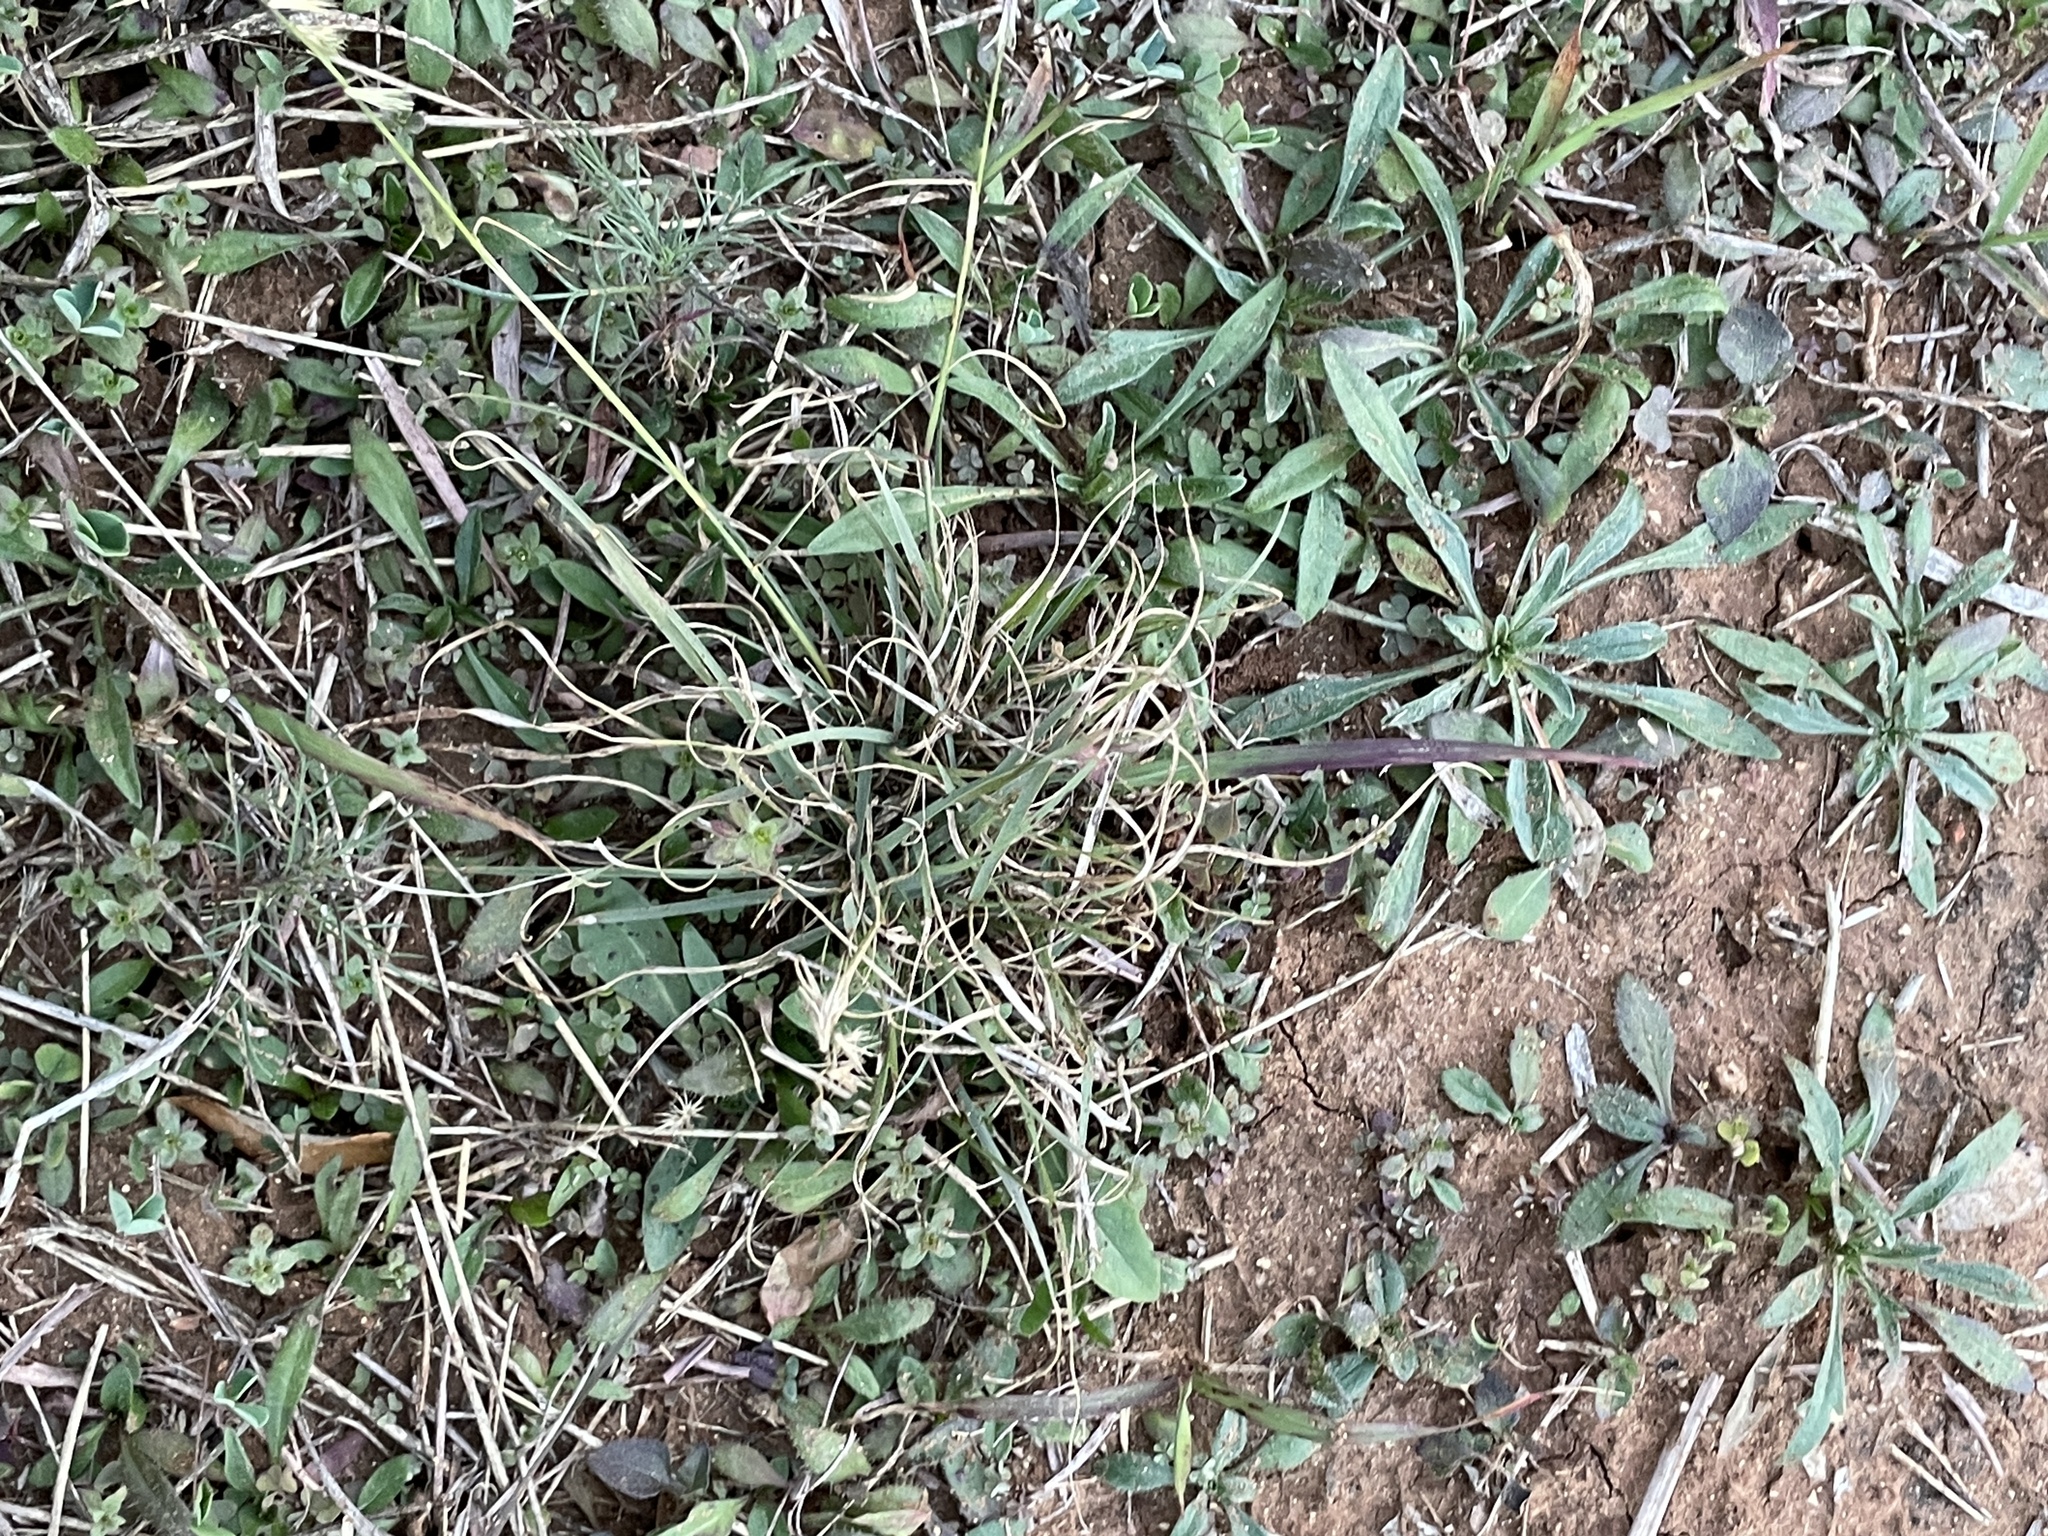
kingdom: Plantae
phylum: Tracheophyta
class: Liliopsida
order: Poales
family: Poaceae
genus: Bouteloua
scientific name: Bouteloua rigidiseta
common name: Texas grama
